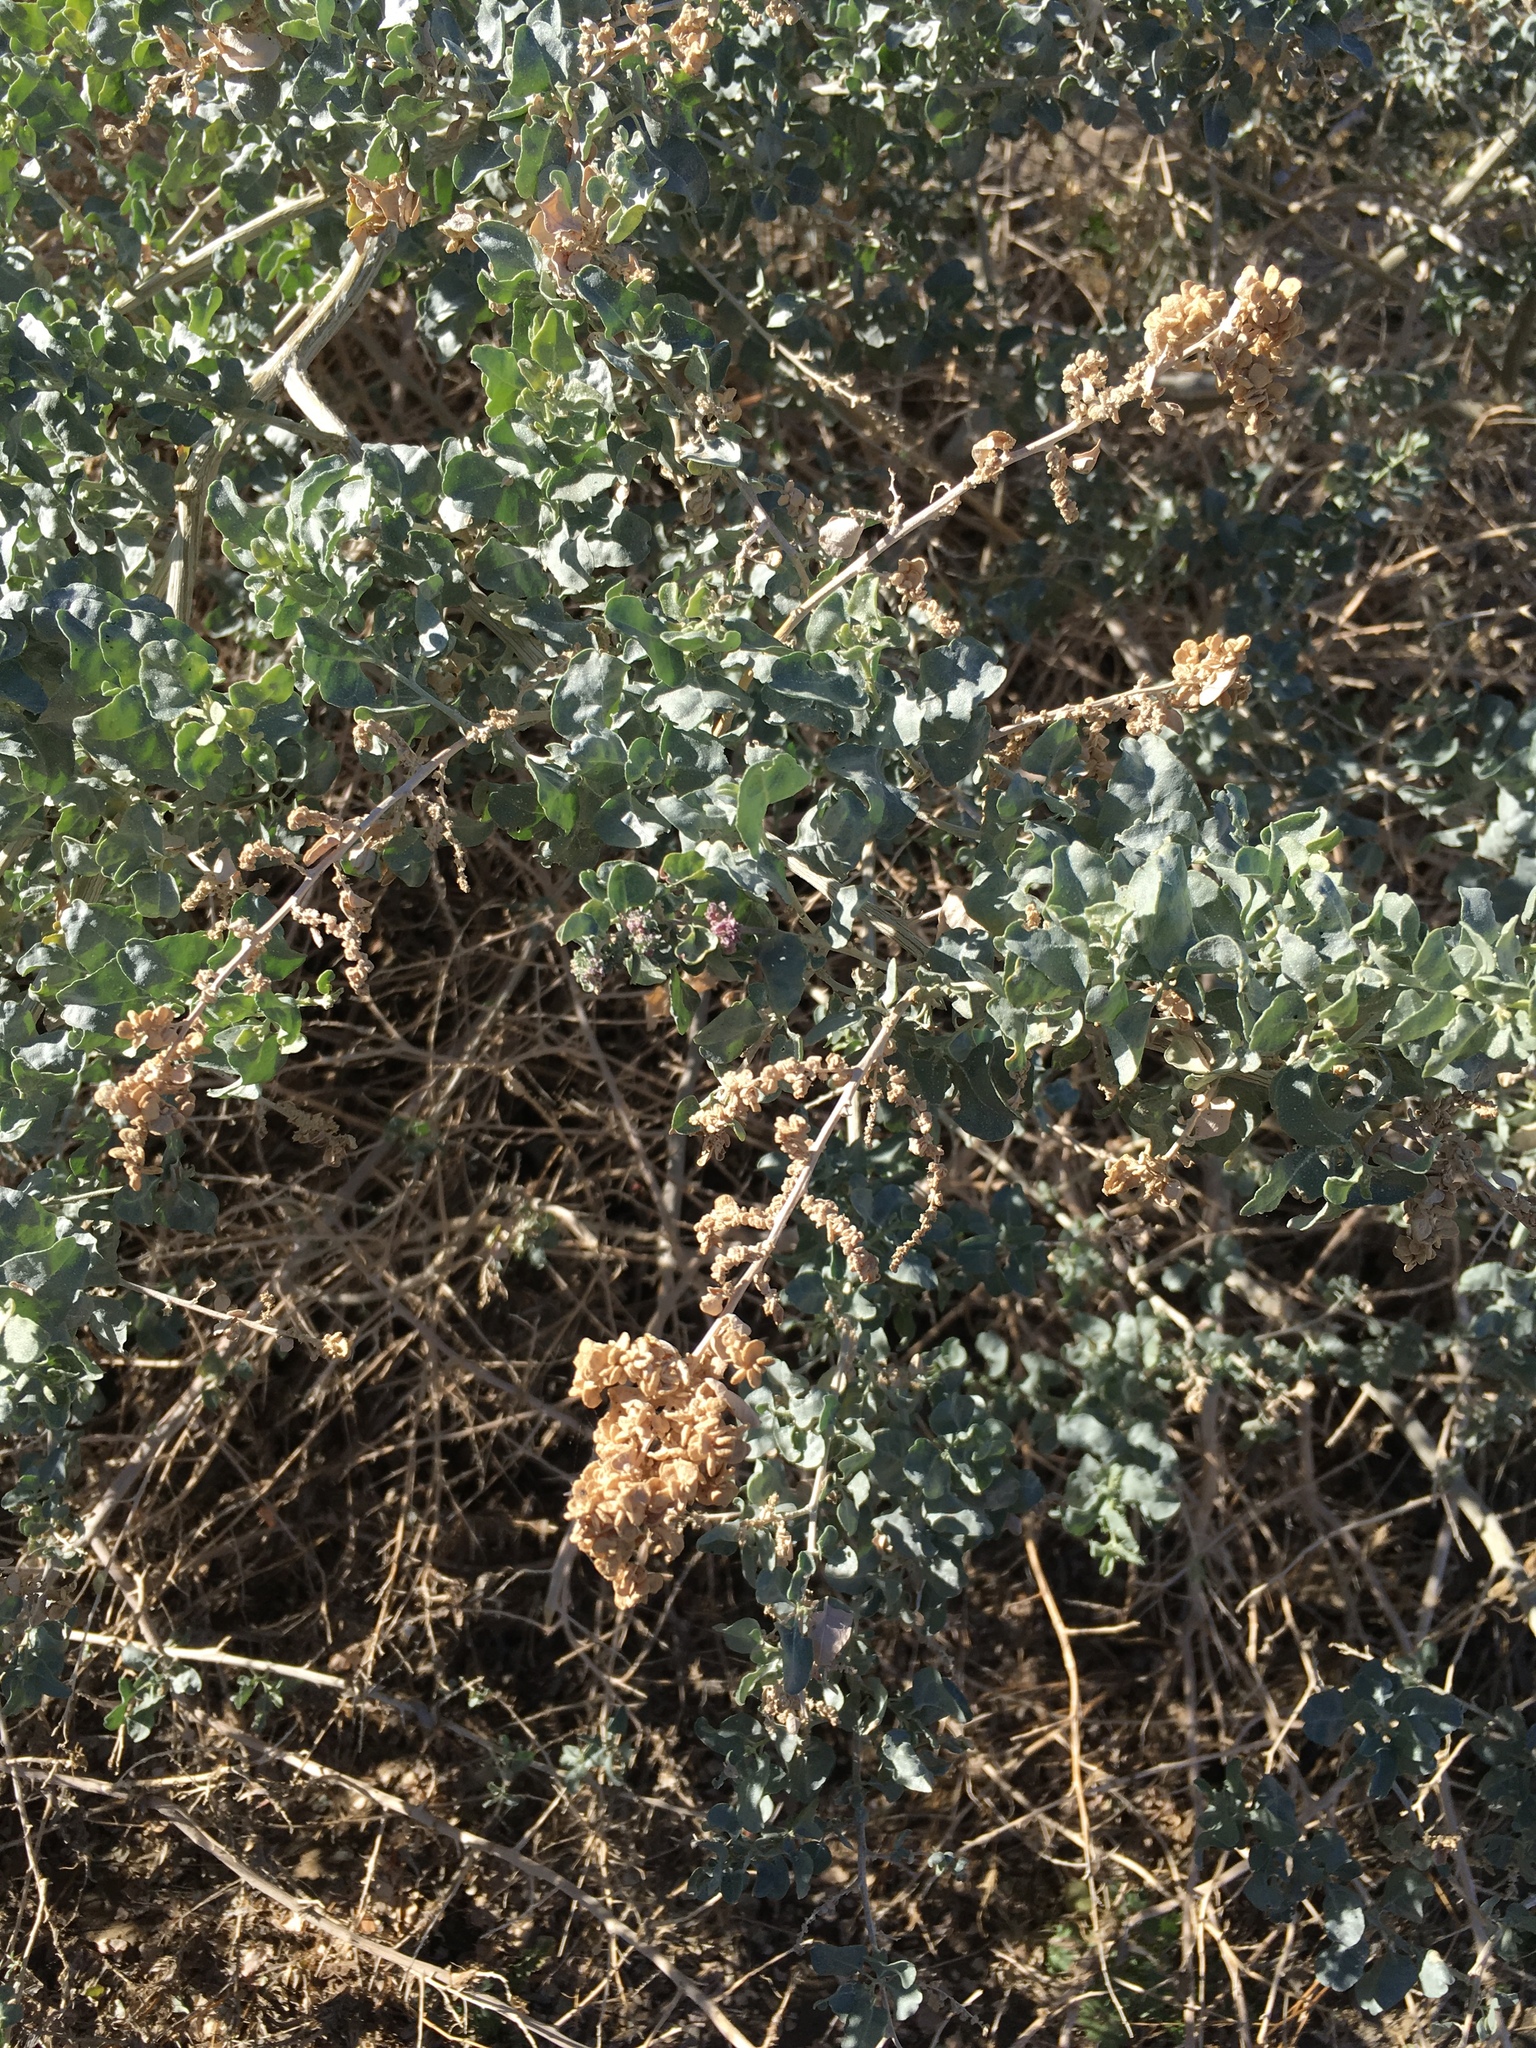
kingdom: Plantae
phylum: Tracheophyta
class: Magnoliopsida
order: Caryophyllales
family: Amaranthaceae
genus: Atriplex
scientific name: Atriplex lentiformis
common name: Big saltbush
